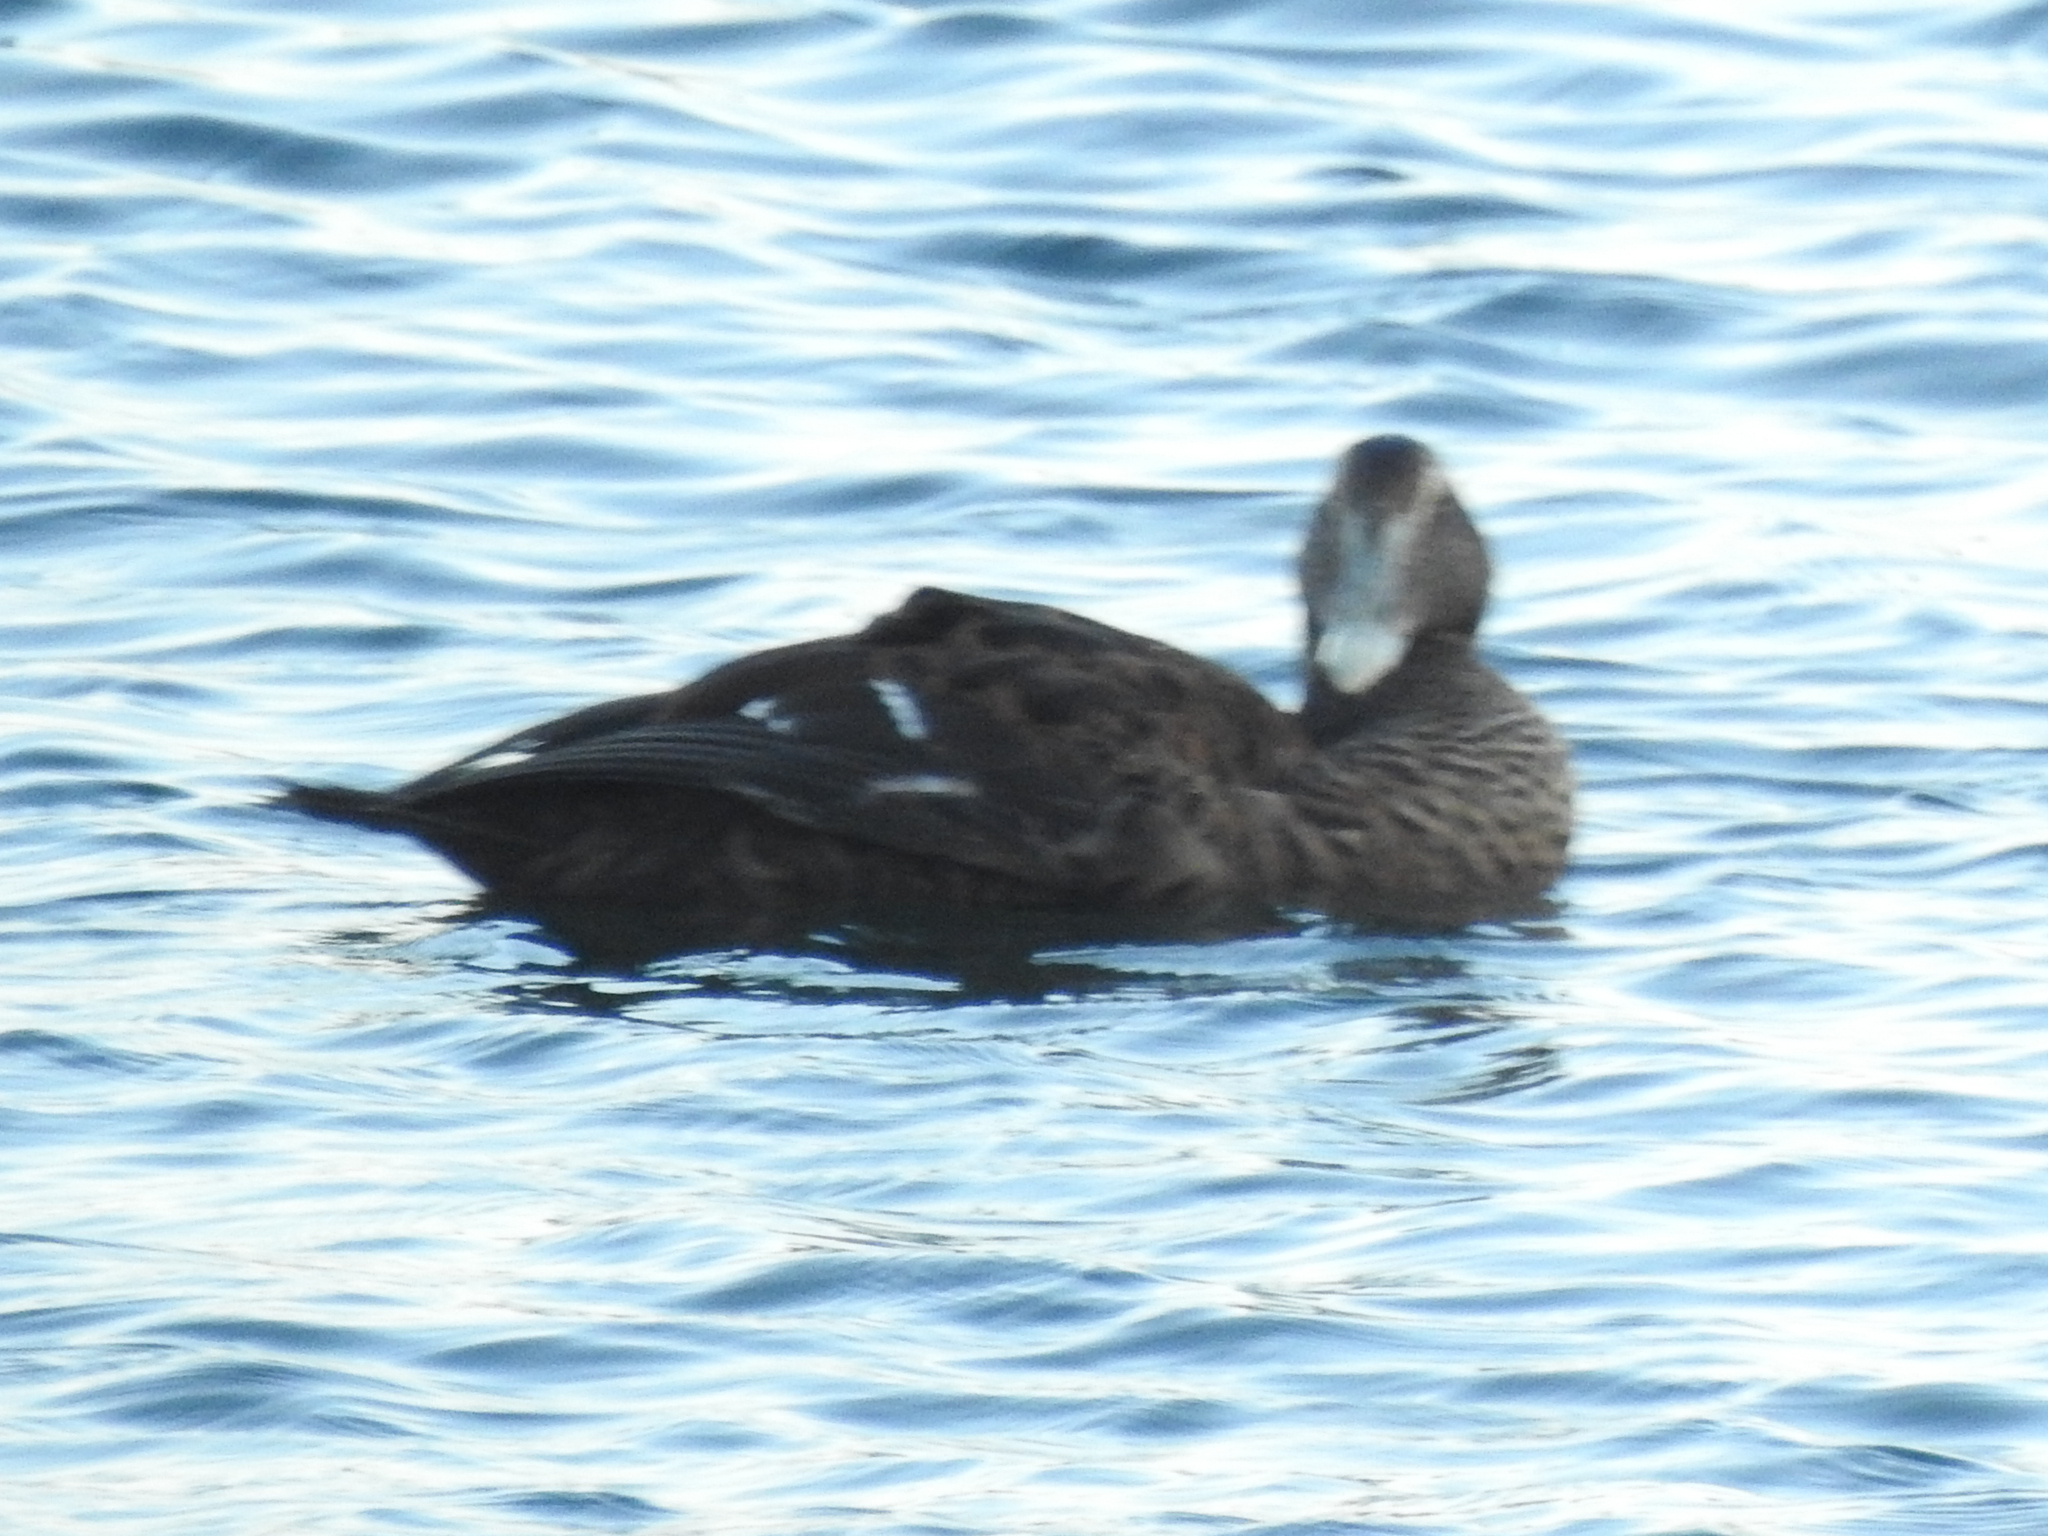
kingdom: Animalia
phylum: Chordata
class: Aves
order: Anseriformes
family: Anatidae
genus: Somateria
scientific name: Somateria mollissima
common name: Common eider
